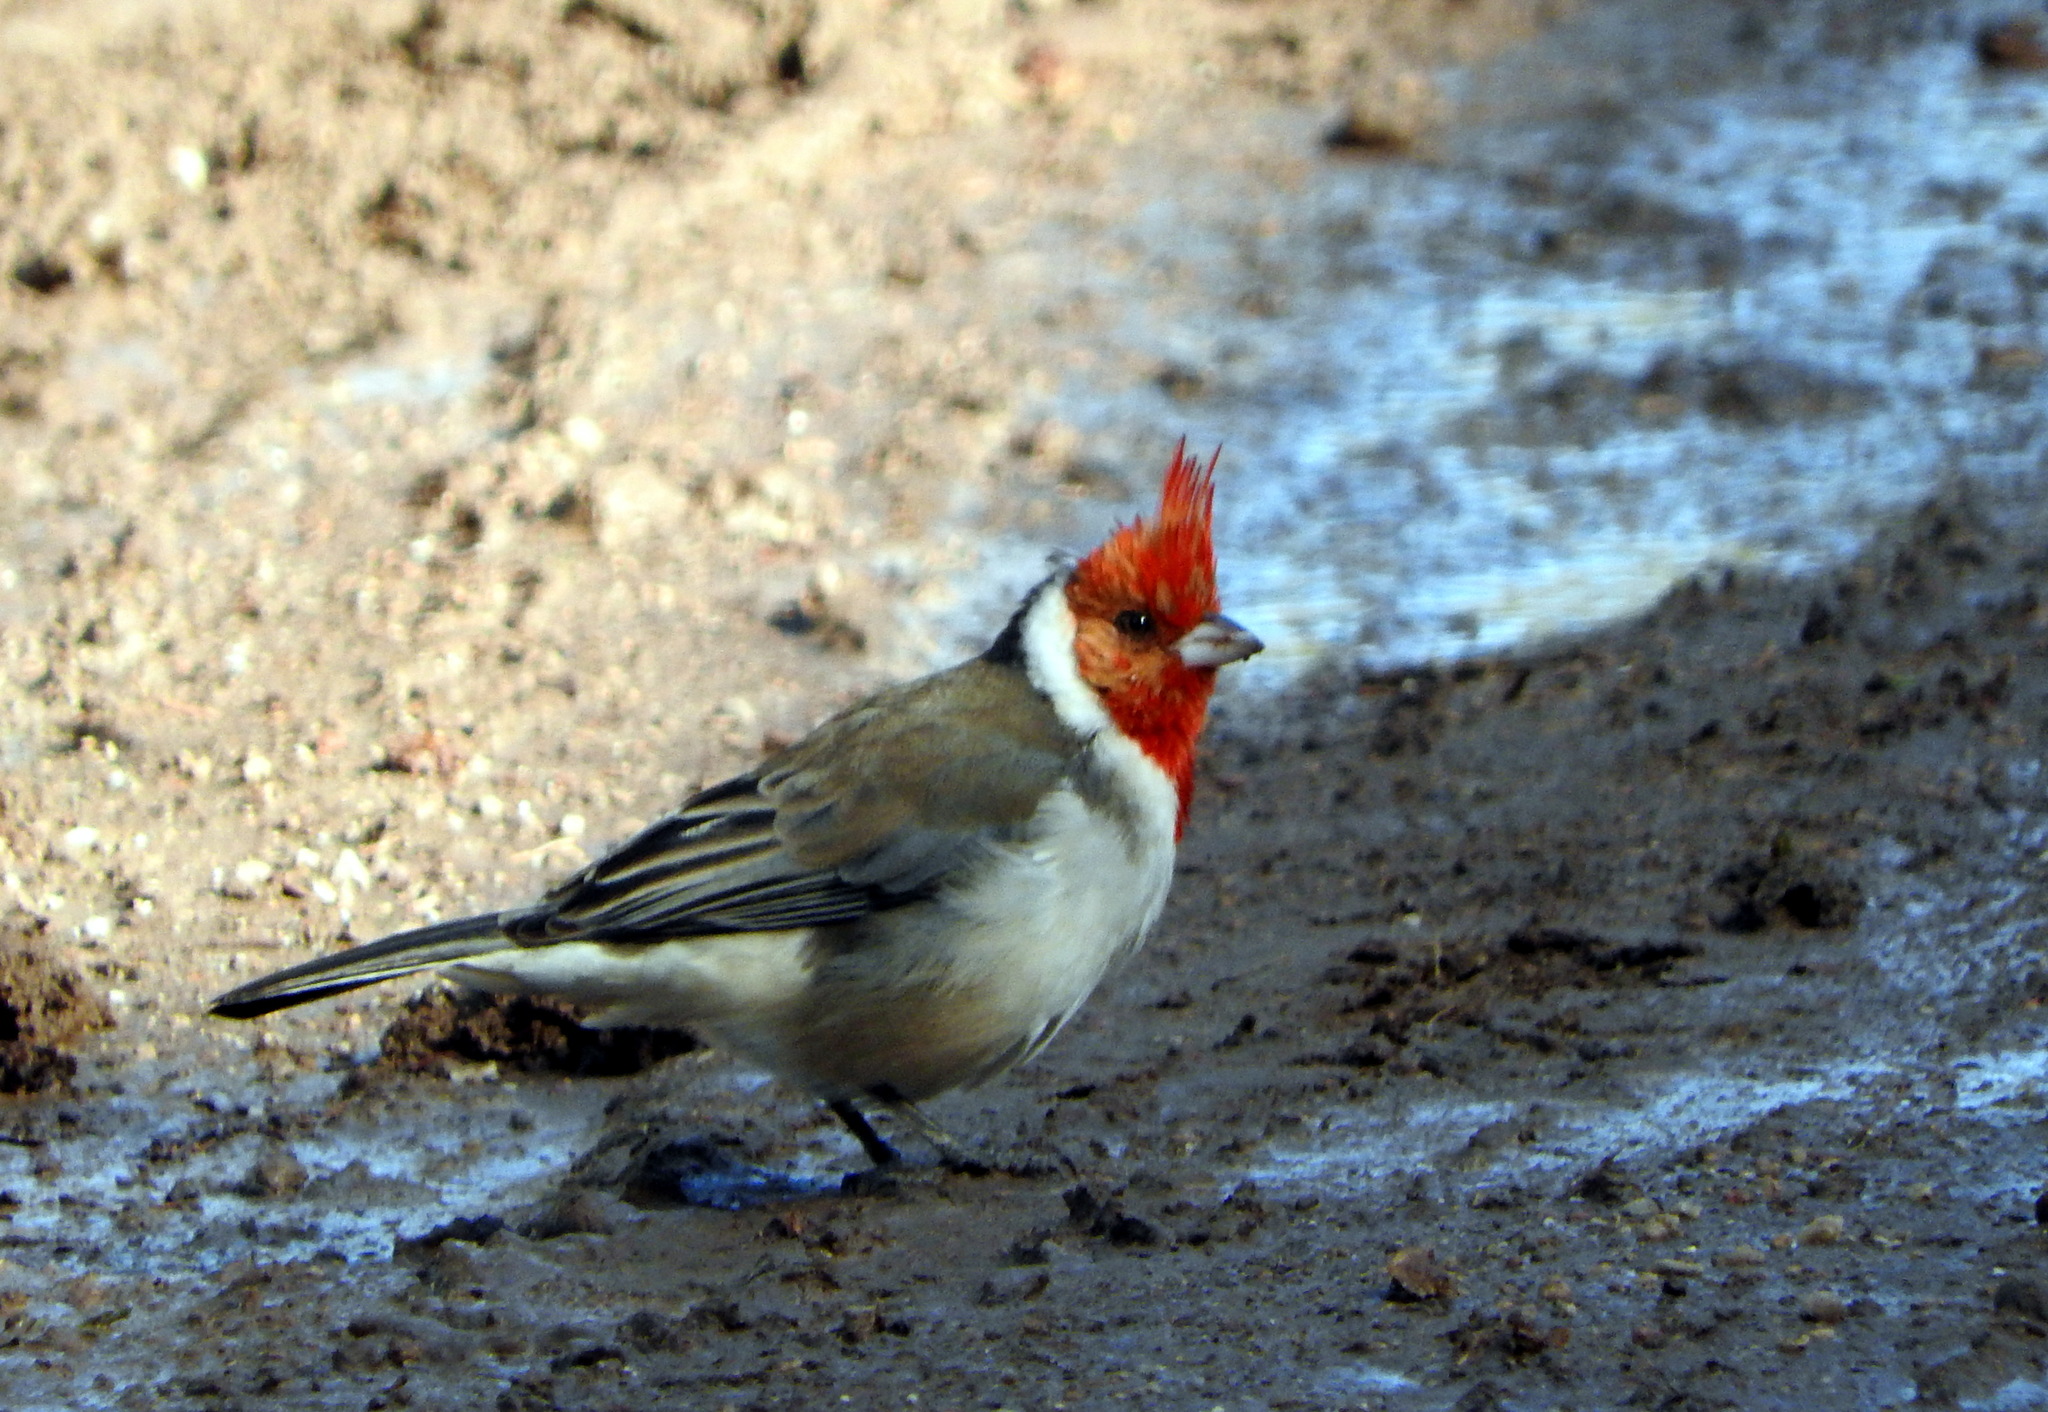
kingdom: Animalia
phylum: Chordata
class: Aves
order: Passeriformes
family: Thraupidae
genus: Paroaria
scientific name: Paroaria coronata
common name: Red-crested cardinal
